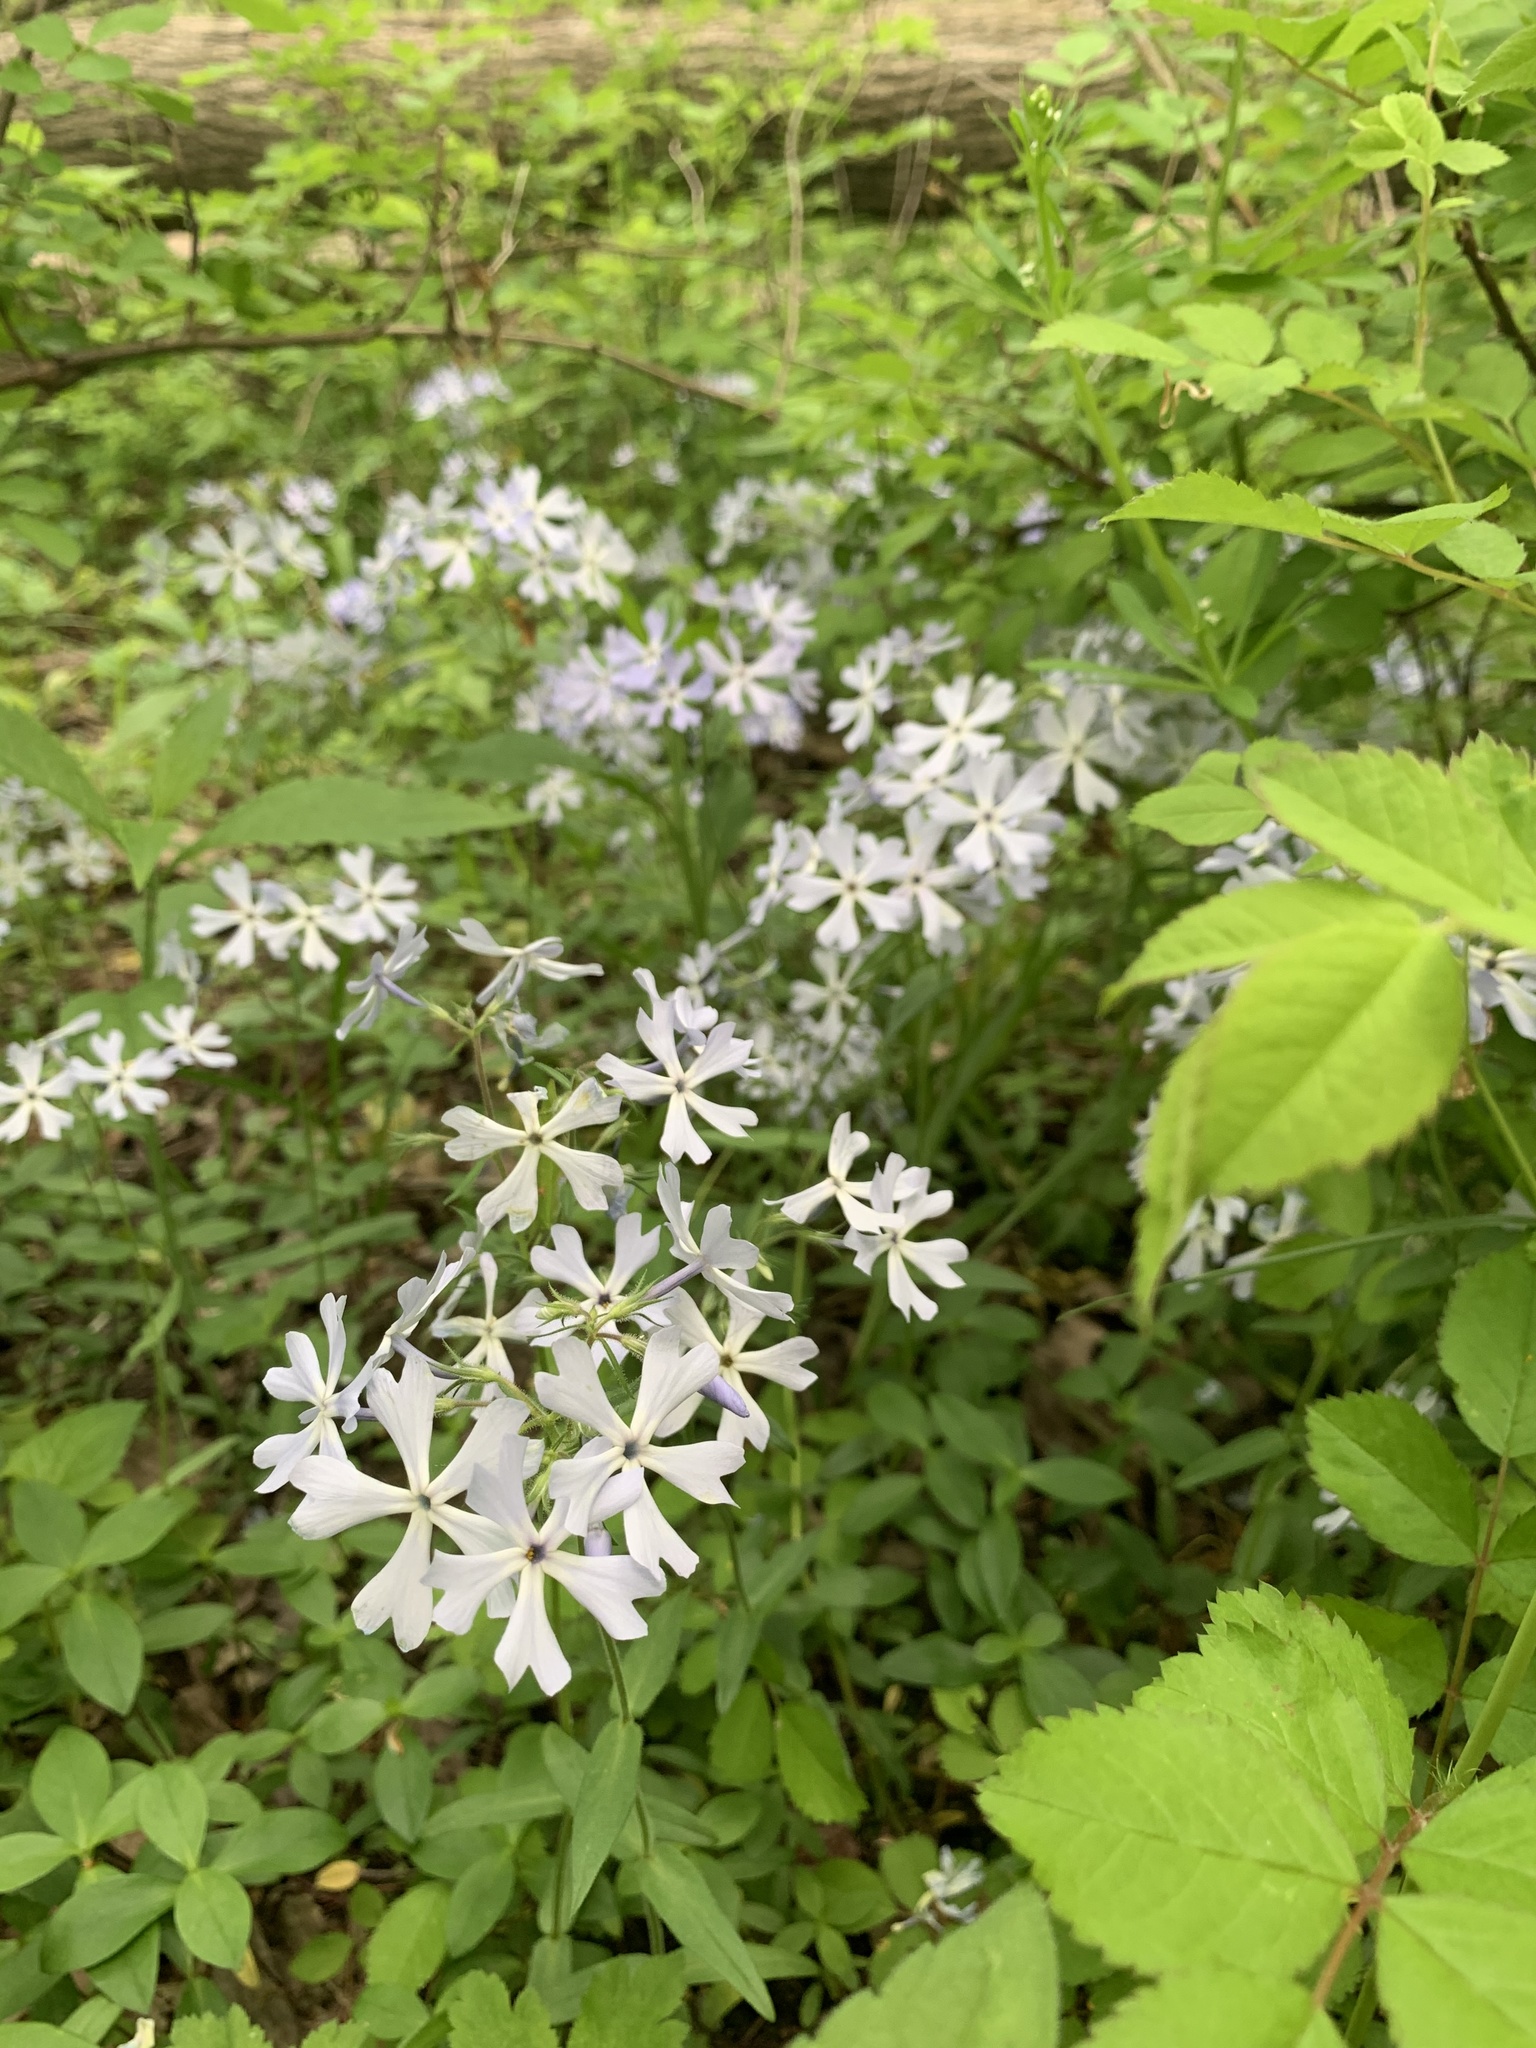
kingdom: Plantae
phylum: Tracheophyta
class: Magnoliopsida
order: Ericales
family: Polemoniaceae
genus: Phlox
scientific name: Phlox divaricata
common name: Blue phlox
